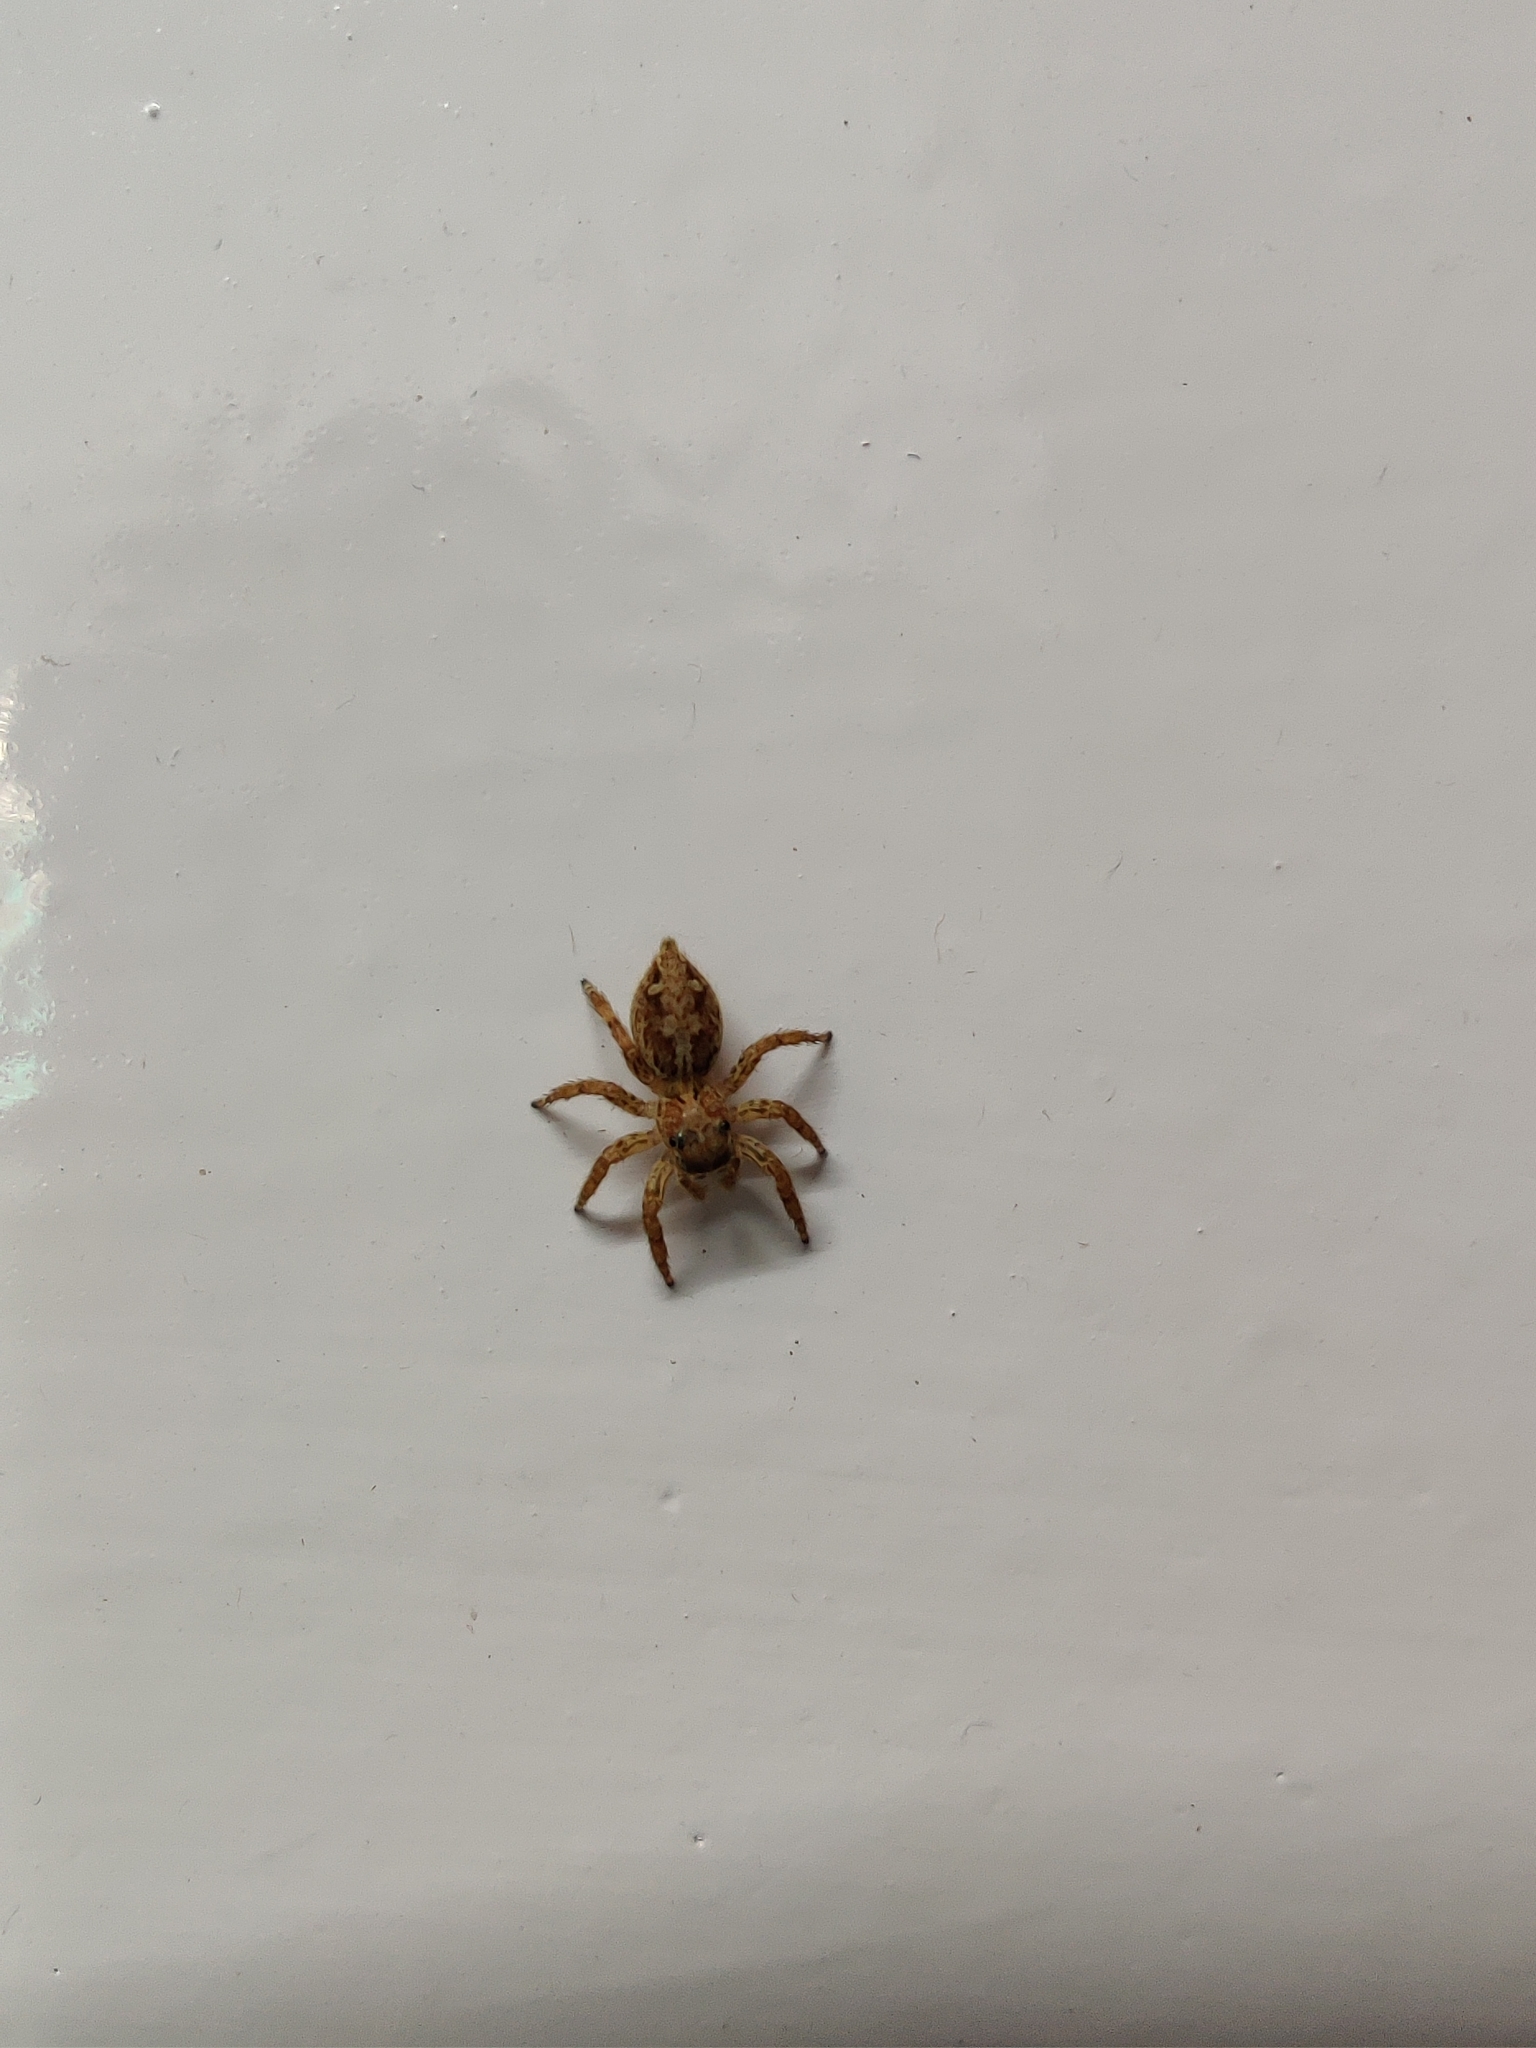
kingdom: Animalia
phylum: Arthropoda
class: Arachnida
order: Araneae
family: Salticidae
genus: Plexippus
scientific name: Plexippus paykulli
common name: Pantropical jumper
